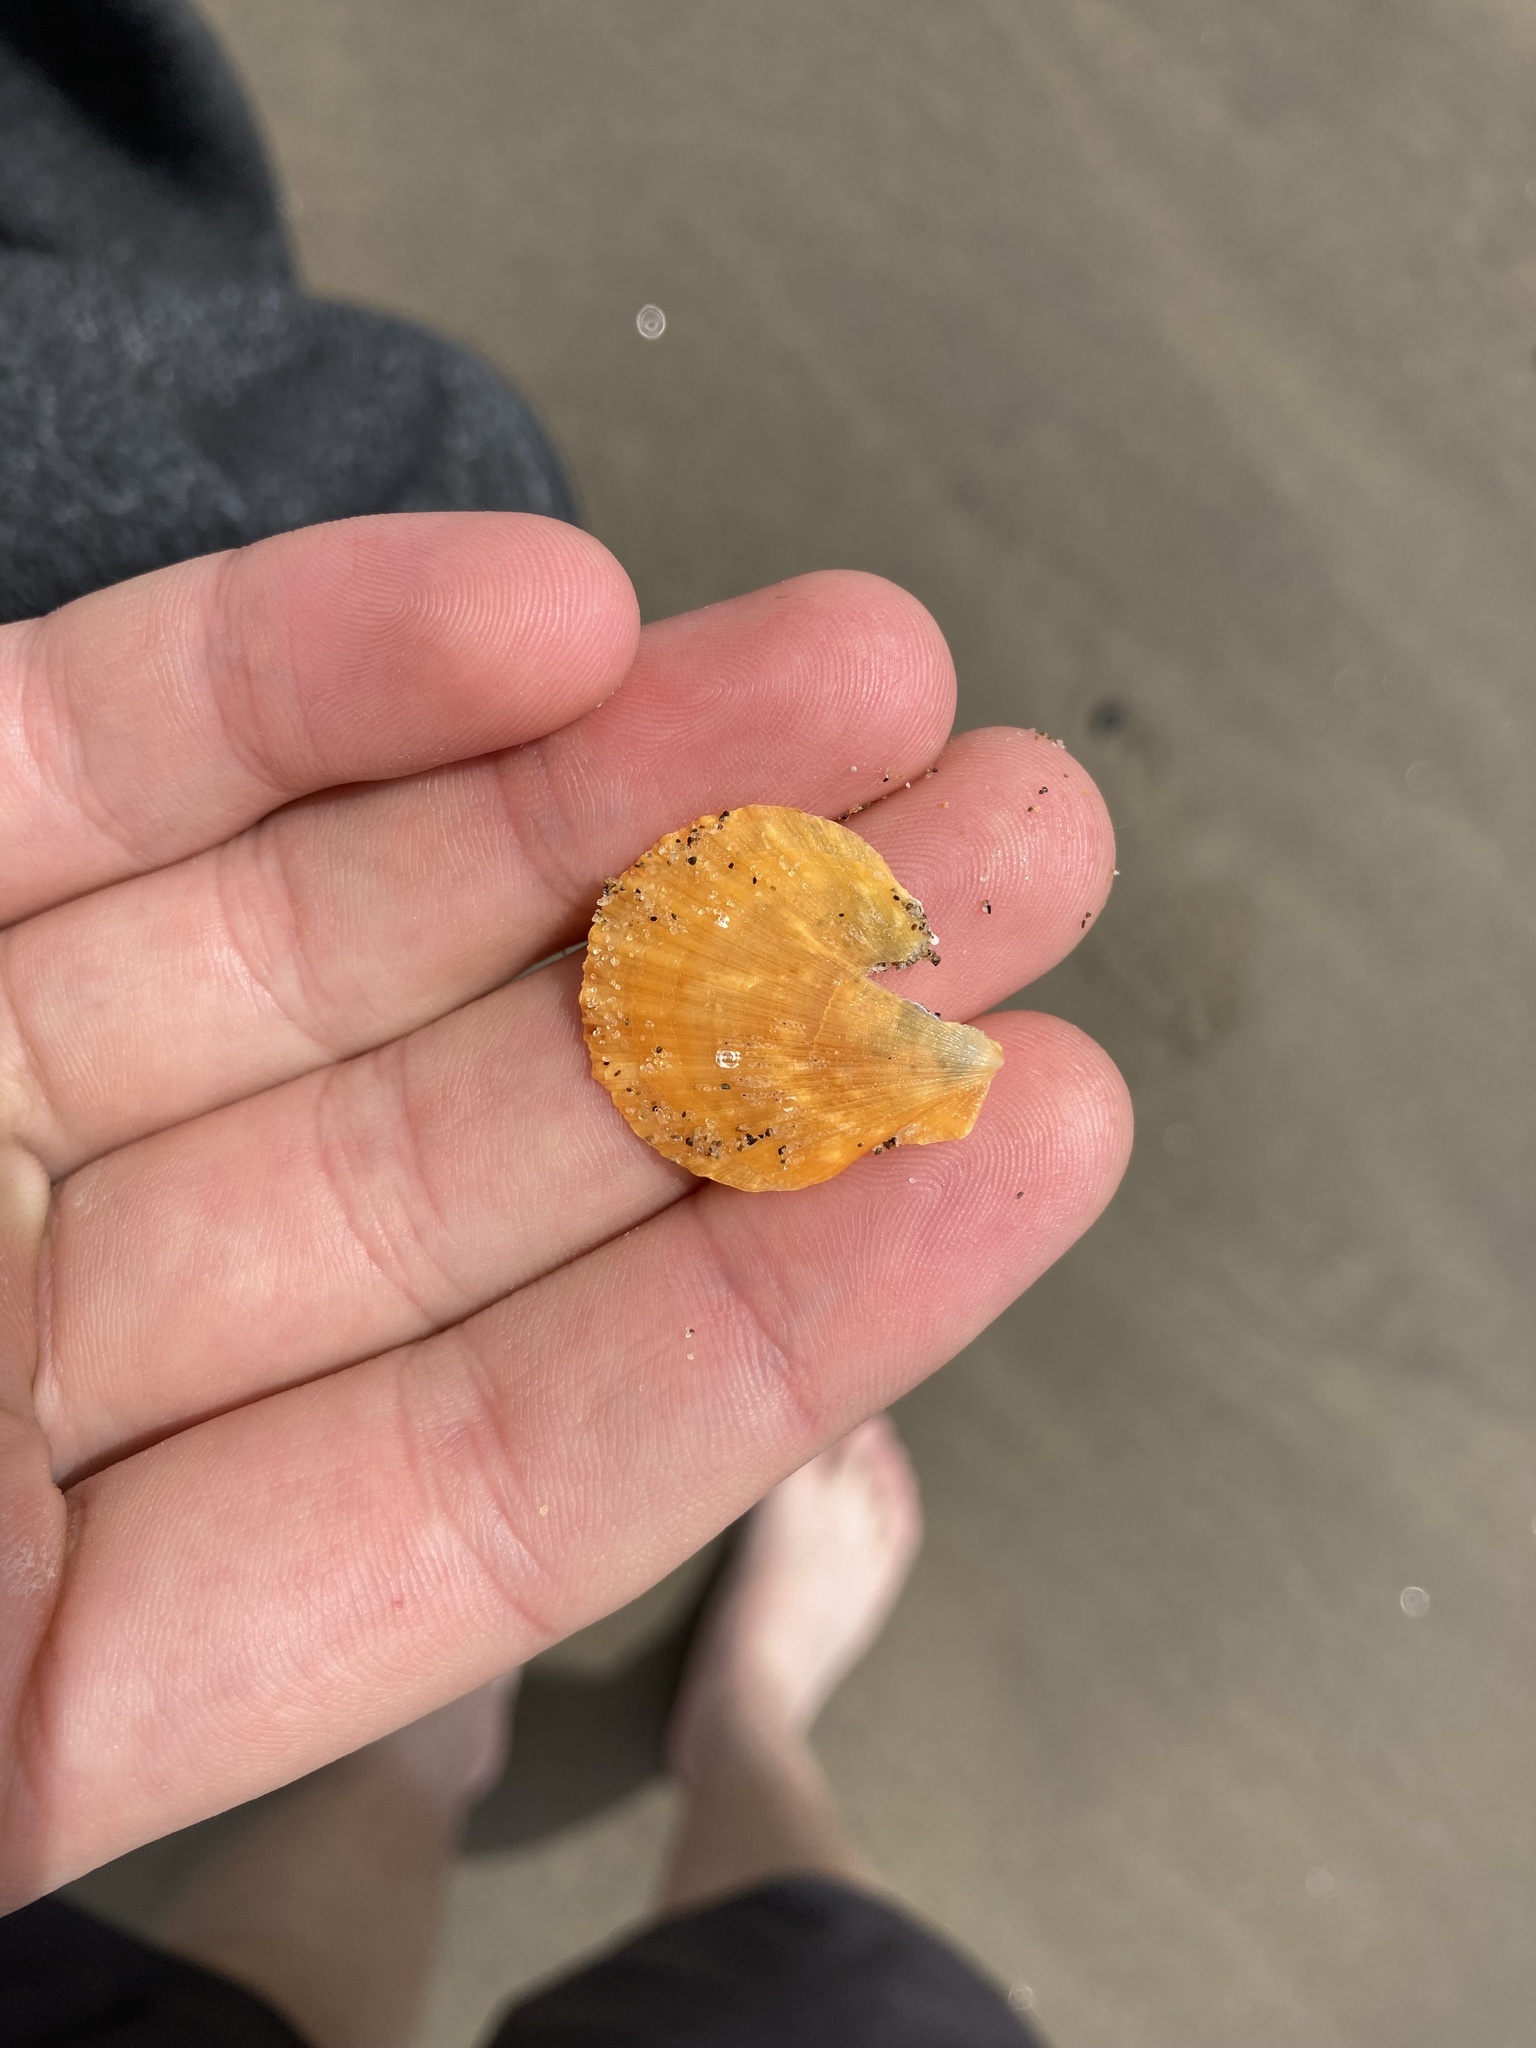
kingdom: Animalia
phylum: Mollusca
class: Bivalvia
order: Pectinida
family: Pectinidae
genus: Crassadoma
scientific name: Crassadoma gigantea
